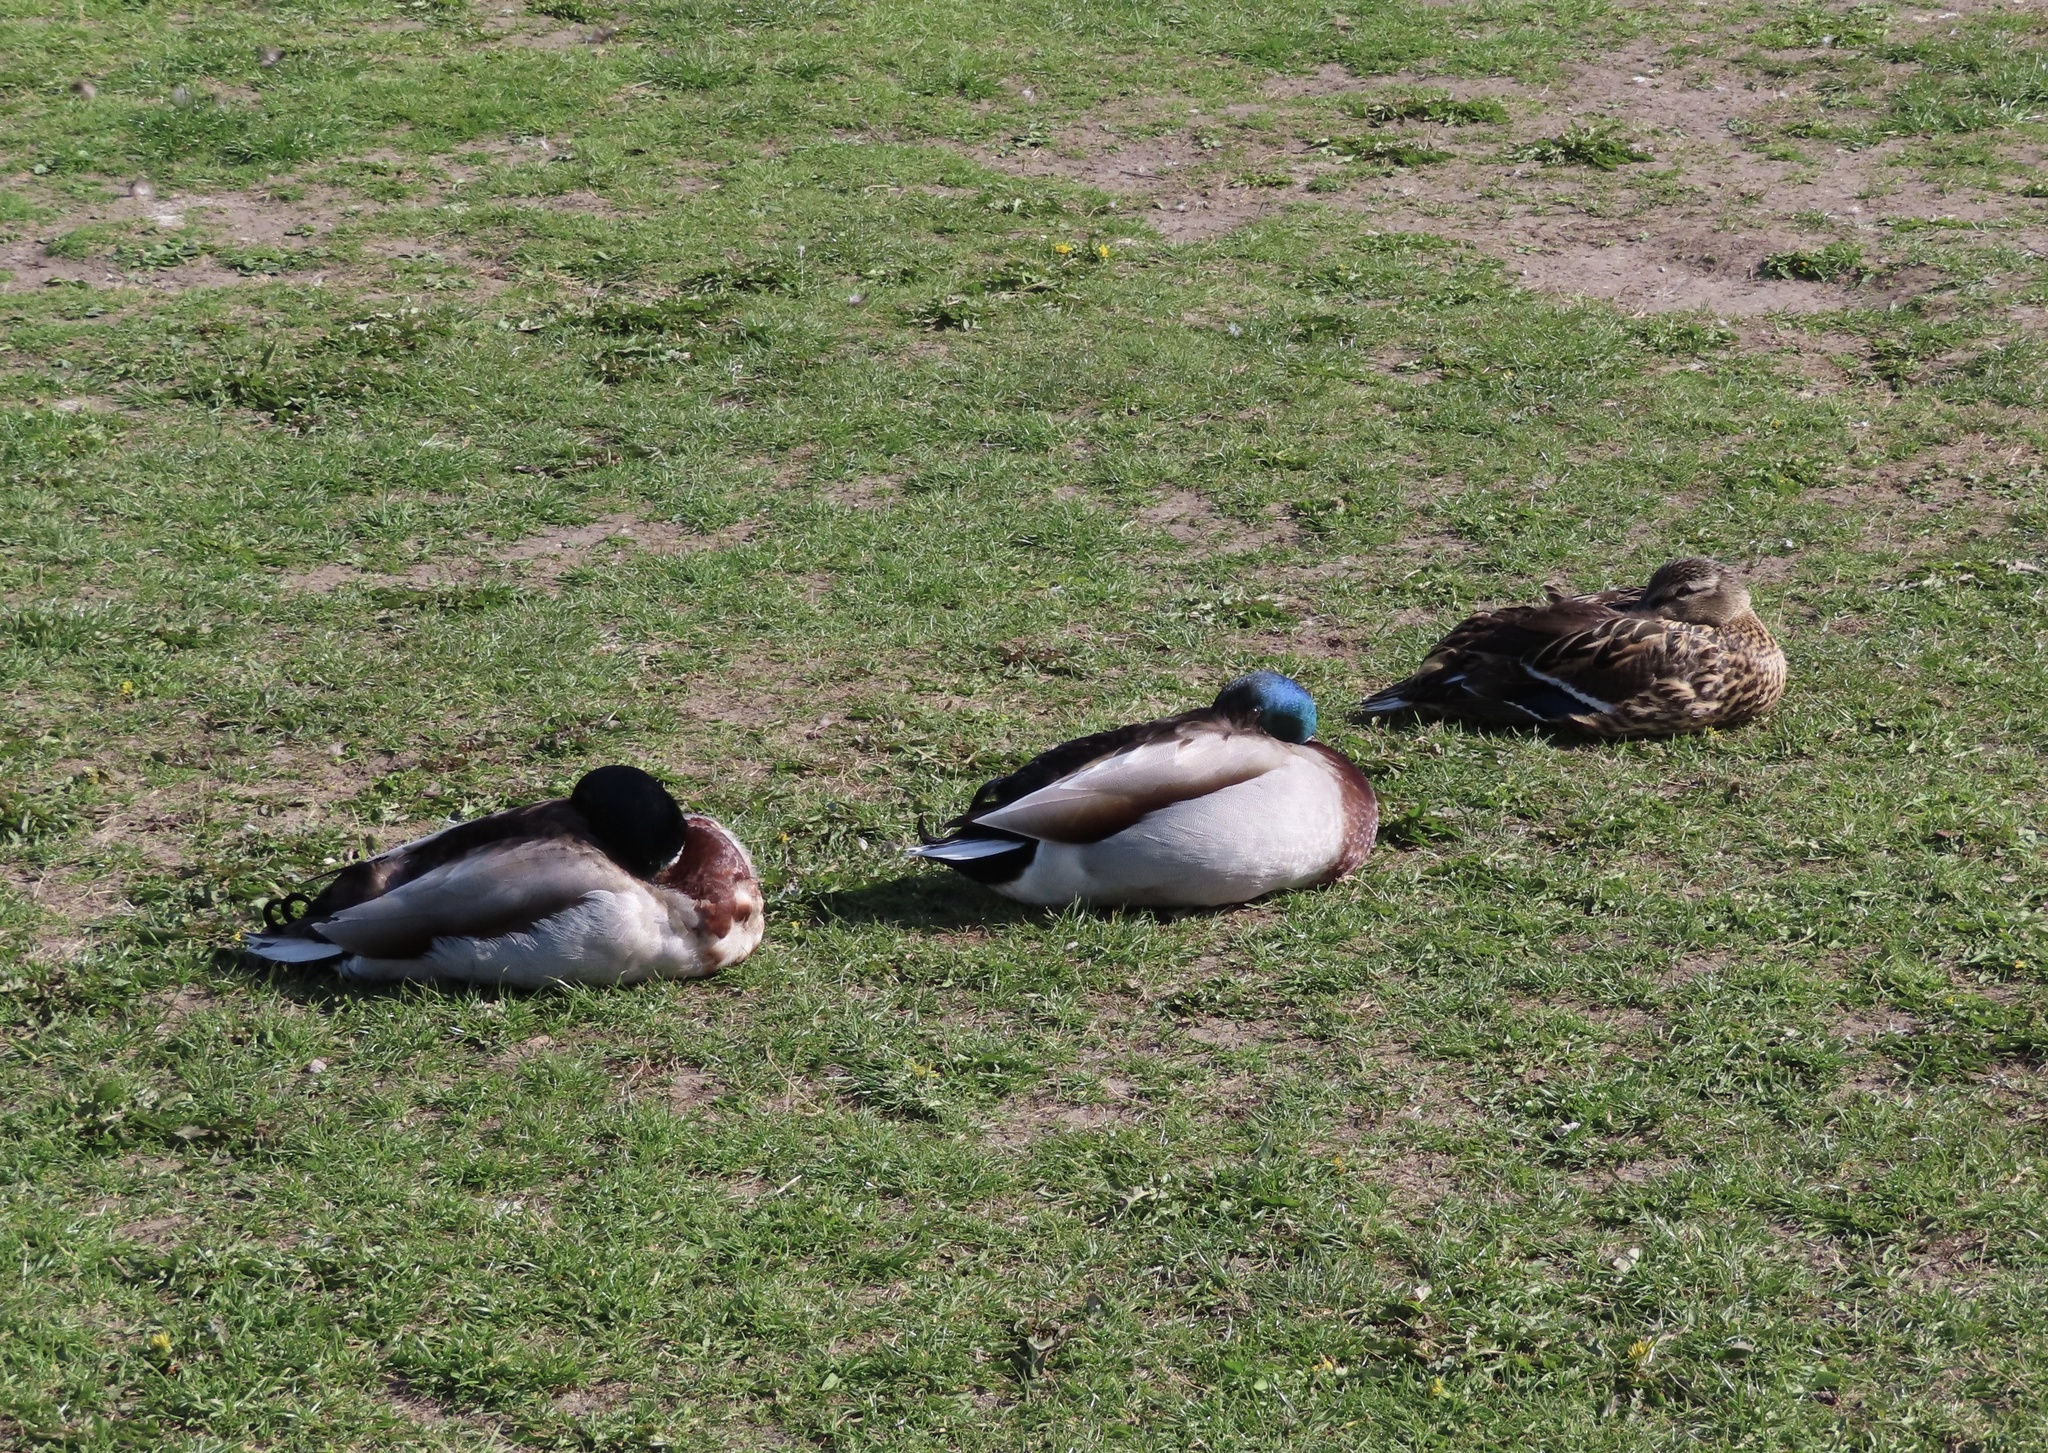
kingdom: Animalia
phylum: Chordata
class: Aves
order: Anseriformes
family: Anatidae
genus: Anas
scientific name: Anas platyrhynchos
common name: Mallard
